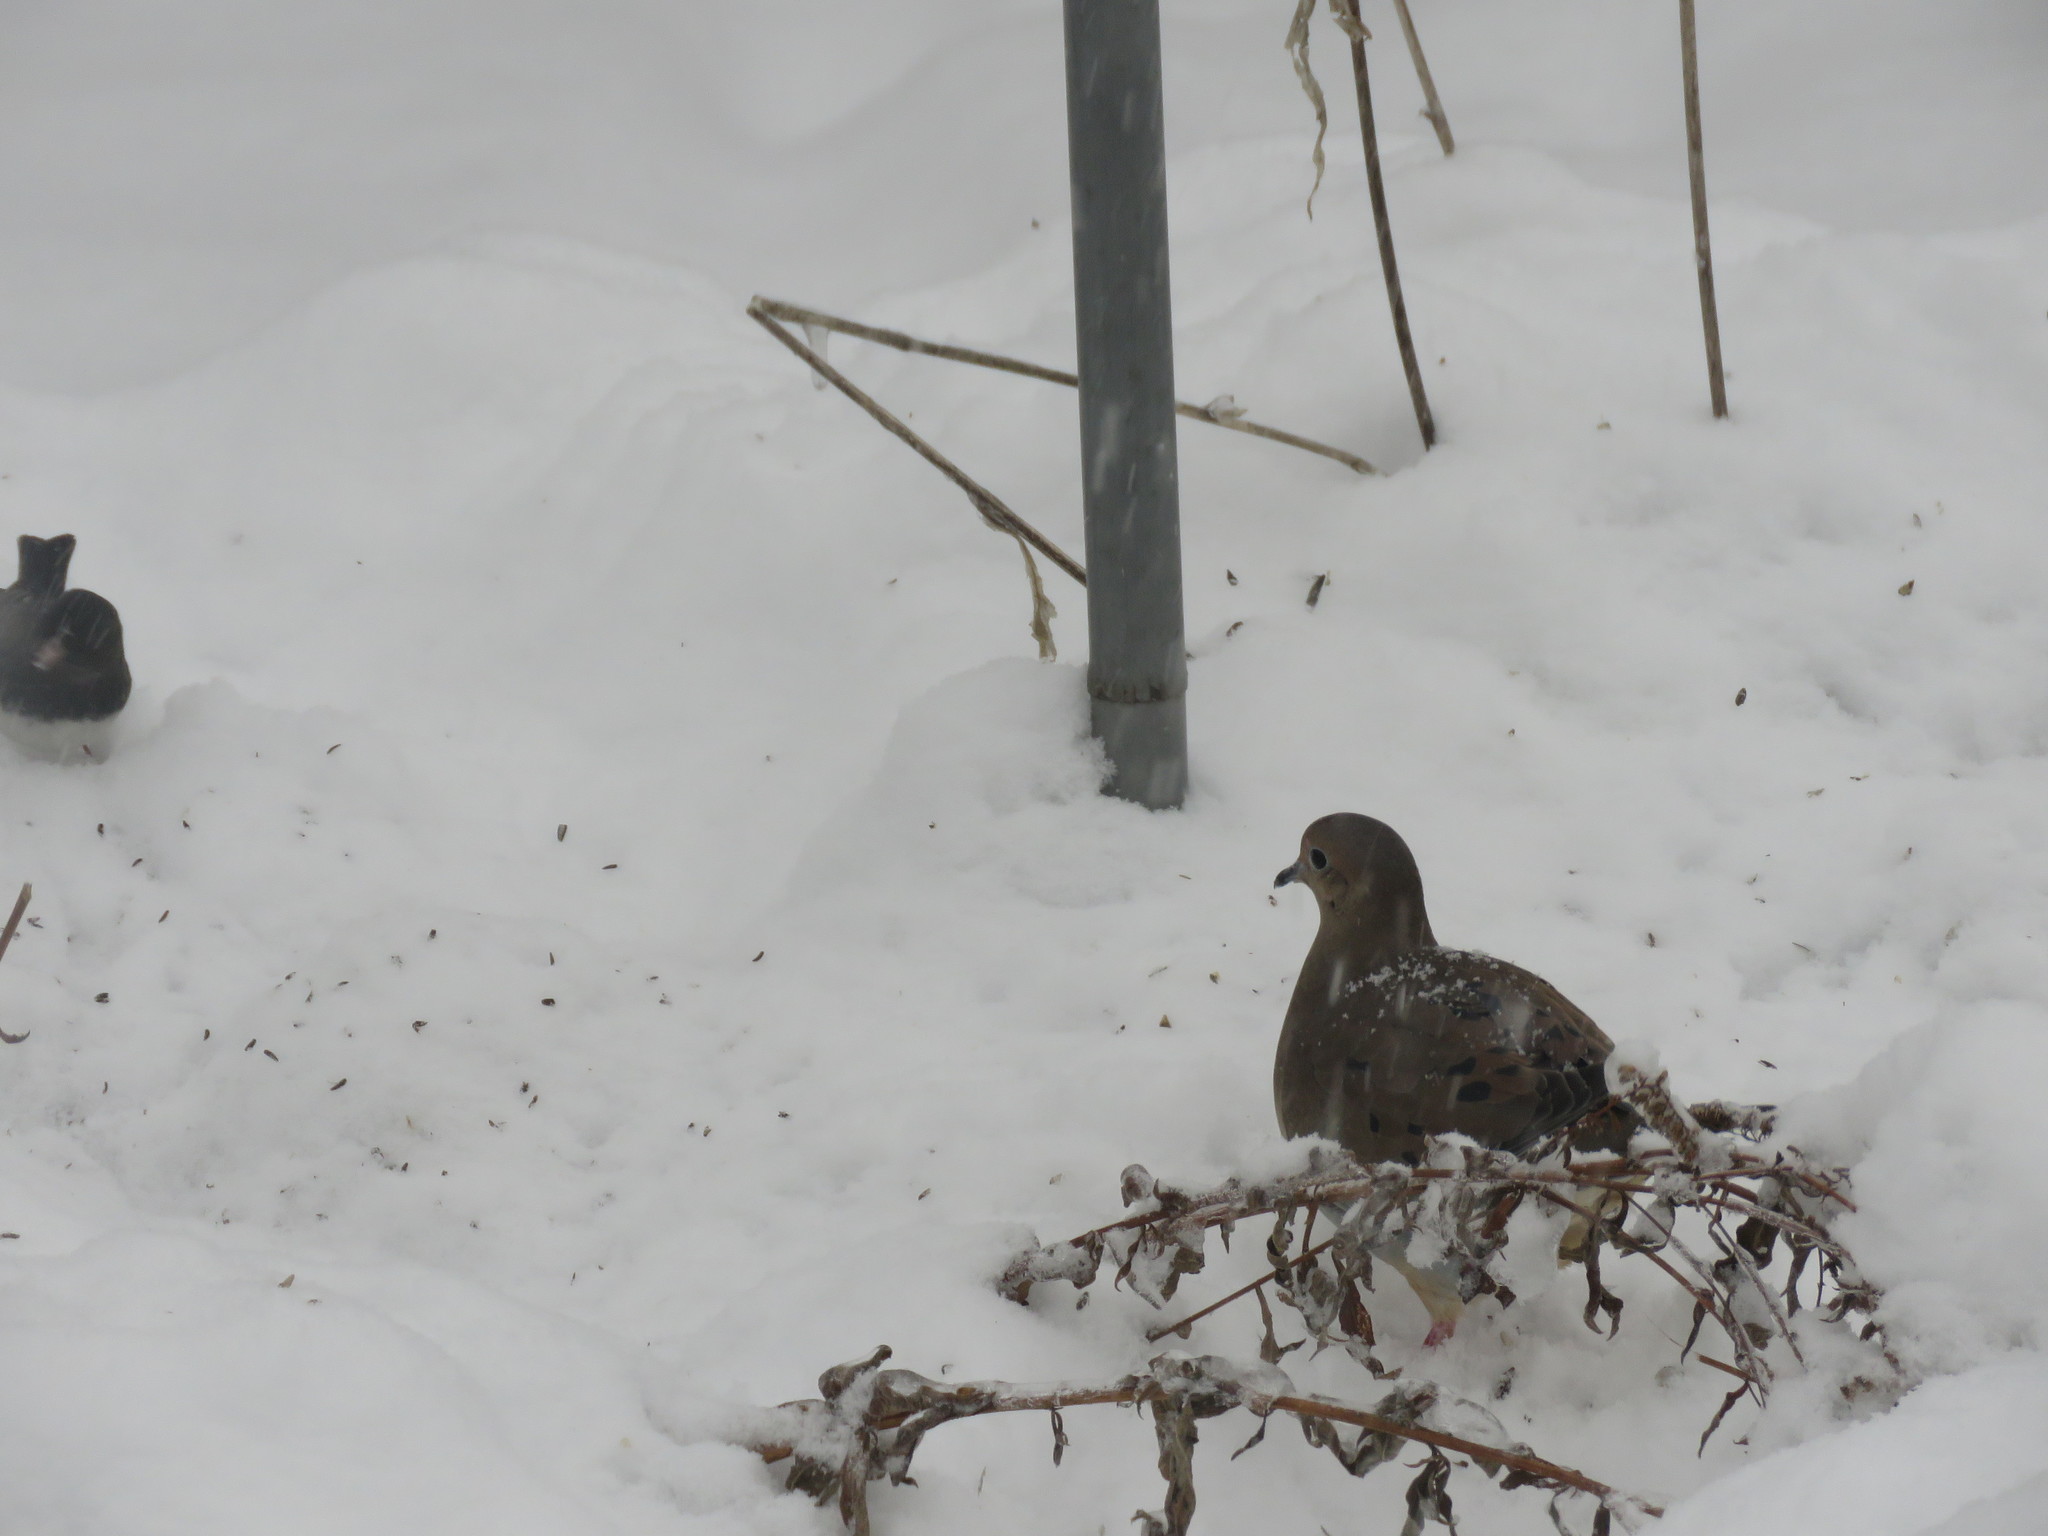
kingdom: Animalia
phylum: Chordata
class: Aves
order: Columbiformes
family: Columbidae
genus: Zenaida
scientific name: Zenaida macroura
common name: Mourning dove
